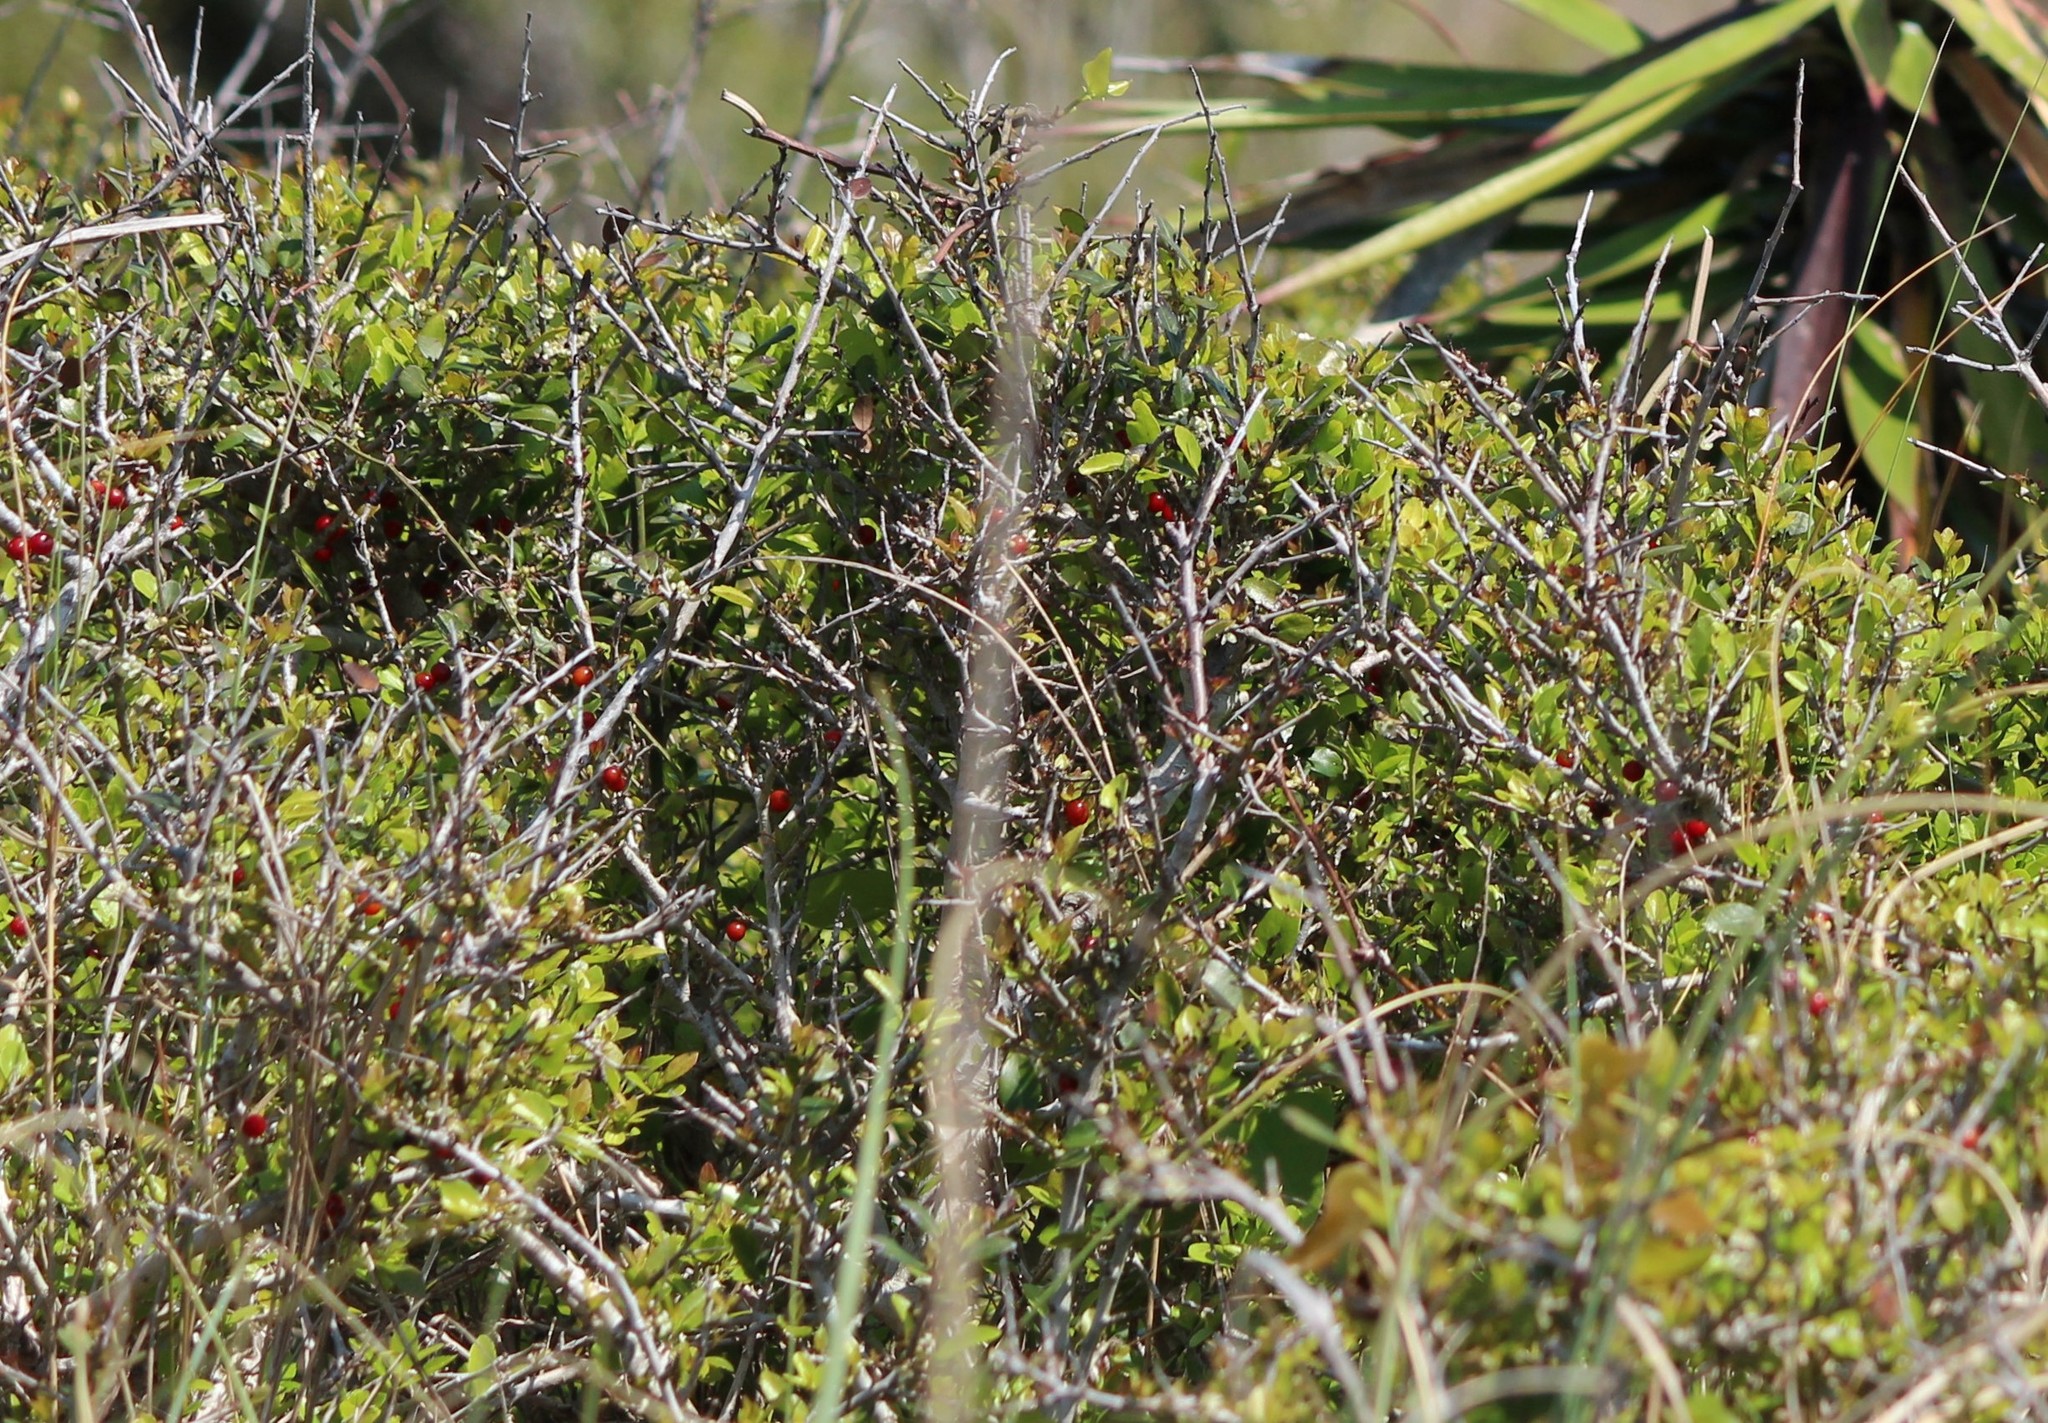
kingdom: Plantae
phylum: Tracheophyta
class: Magnoliopsida
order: Aquifoliales
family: Aquifoliaceae
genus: Ilex
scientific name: Ilex vomitoria
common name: Yaupon holly
